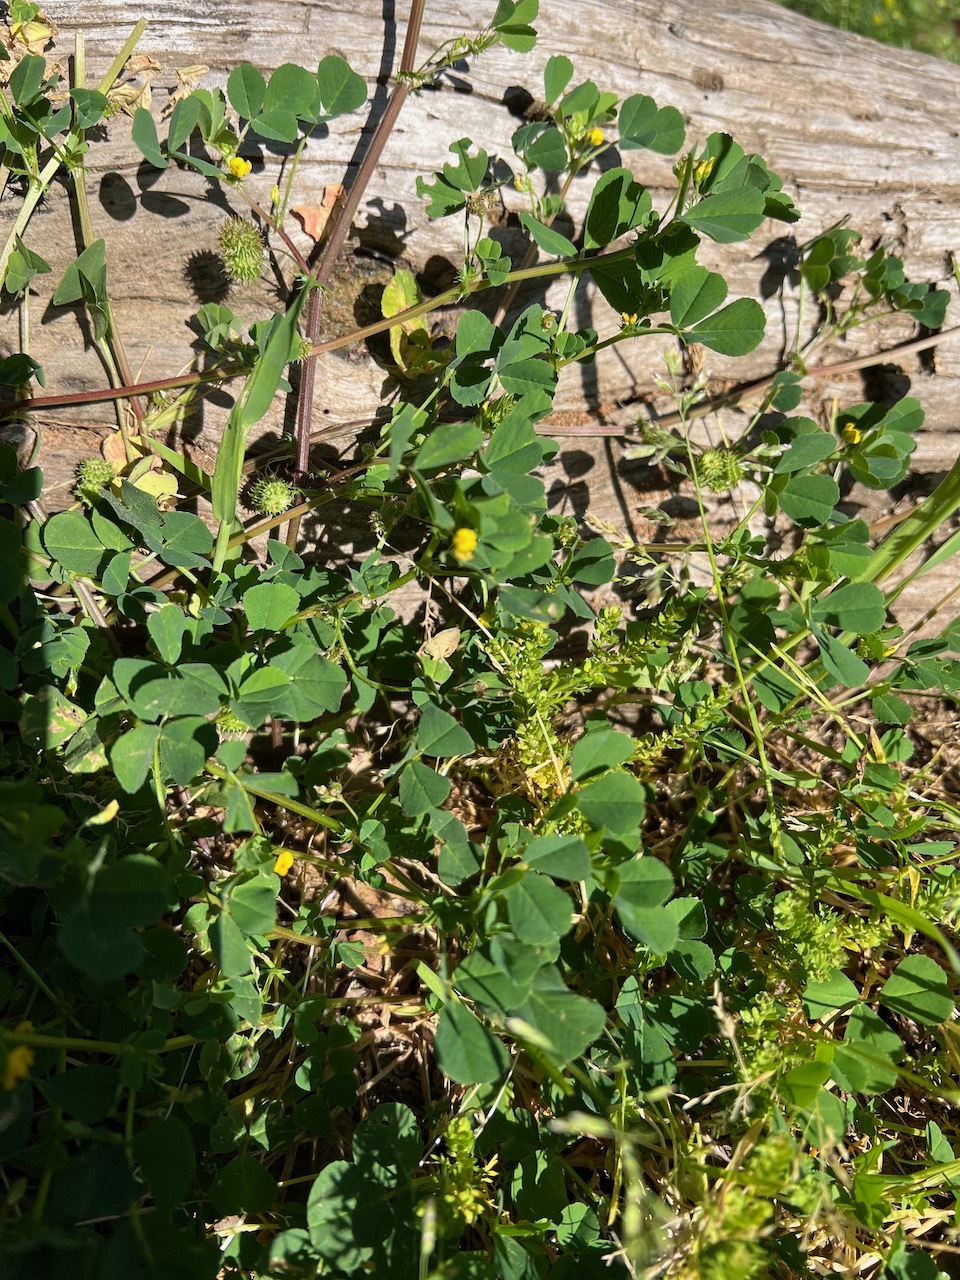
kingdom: Plantae
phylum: Tracheophyta
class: Magnoliopsida
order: Fabales
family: Fabaceae
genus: Medicago
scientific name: Medicago polymorpha
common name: Burclover
